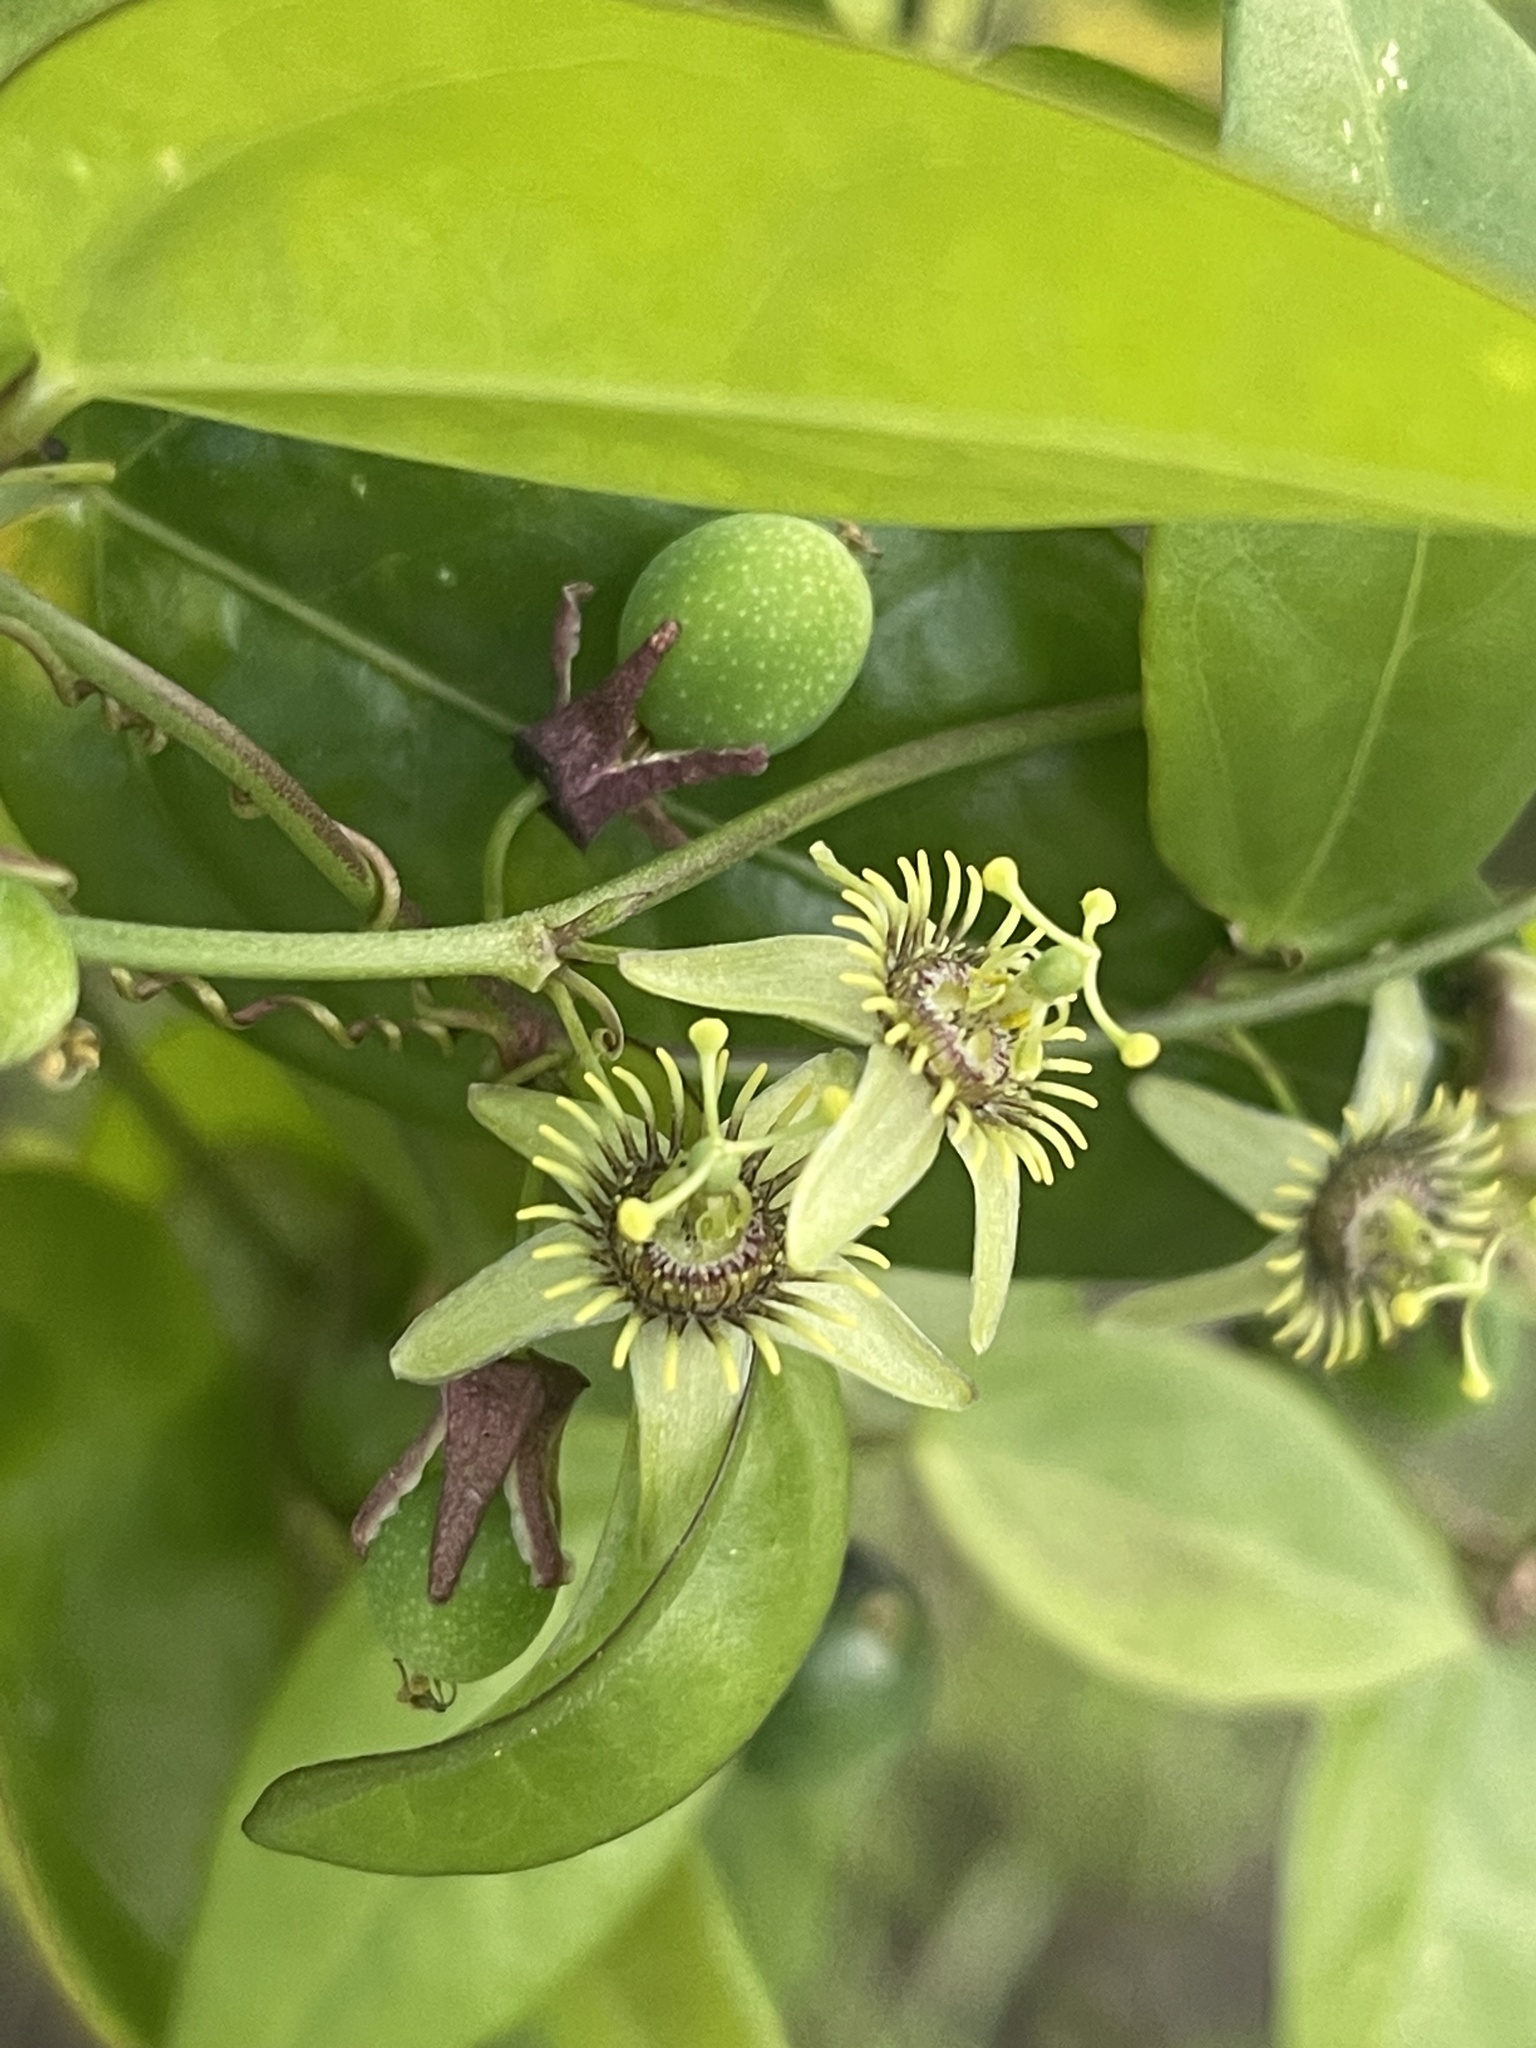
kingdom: Plantae
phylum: Tracheophyta
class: Magnoliopsida
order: Malpighiales
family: Passifloraceae
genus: Passiflora
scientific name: Passiflora pallida
